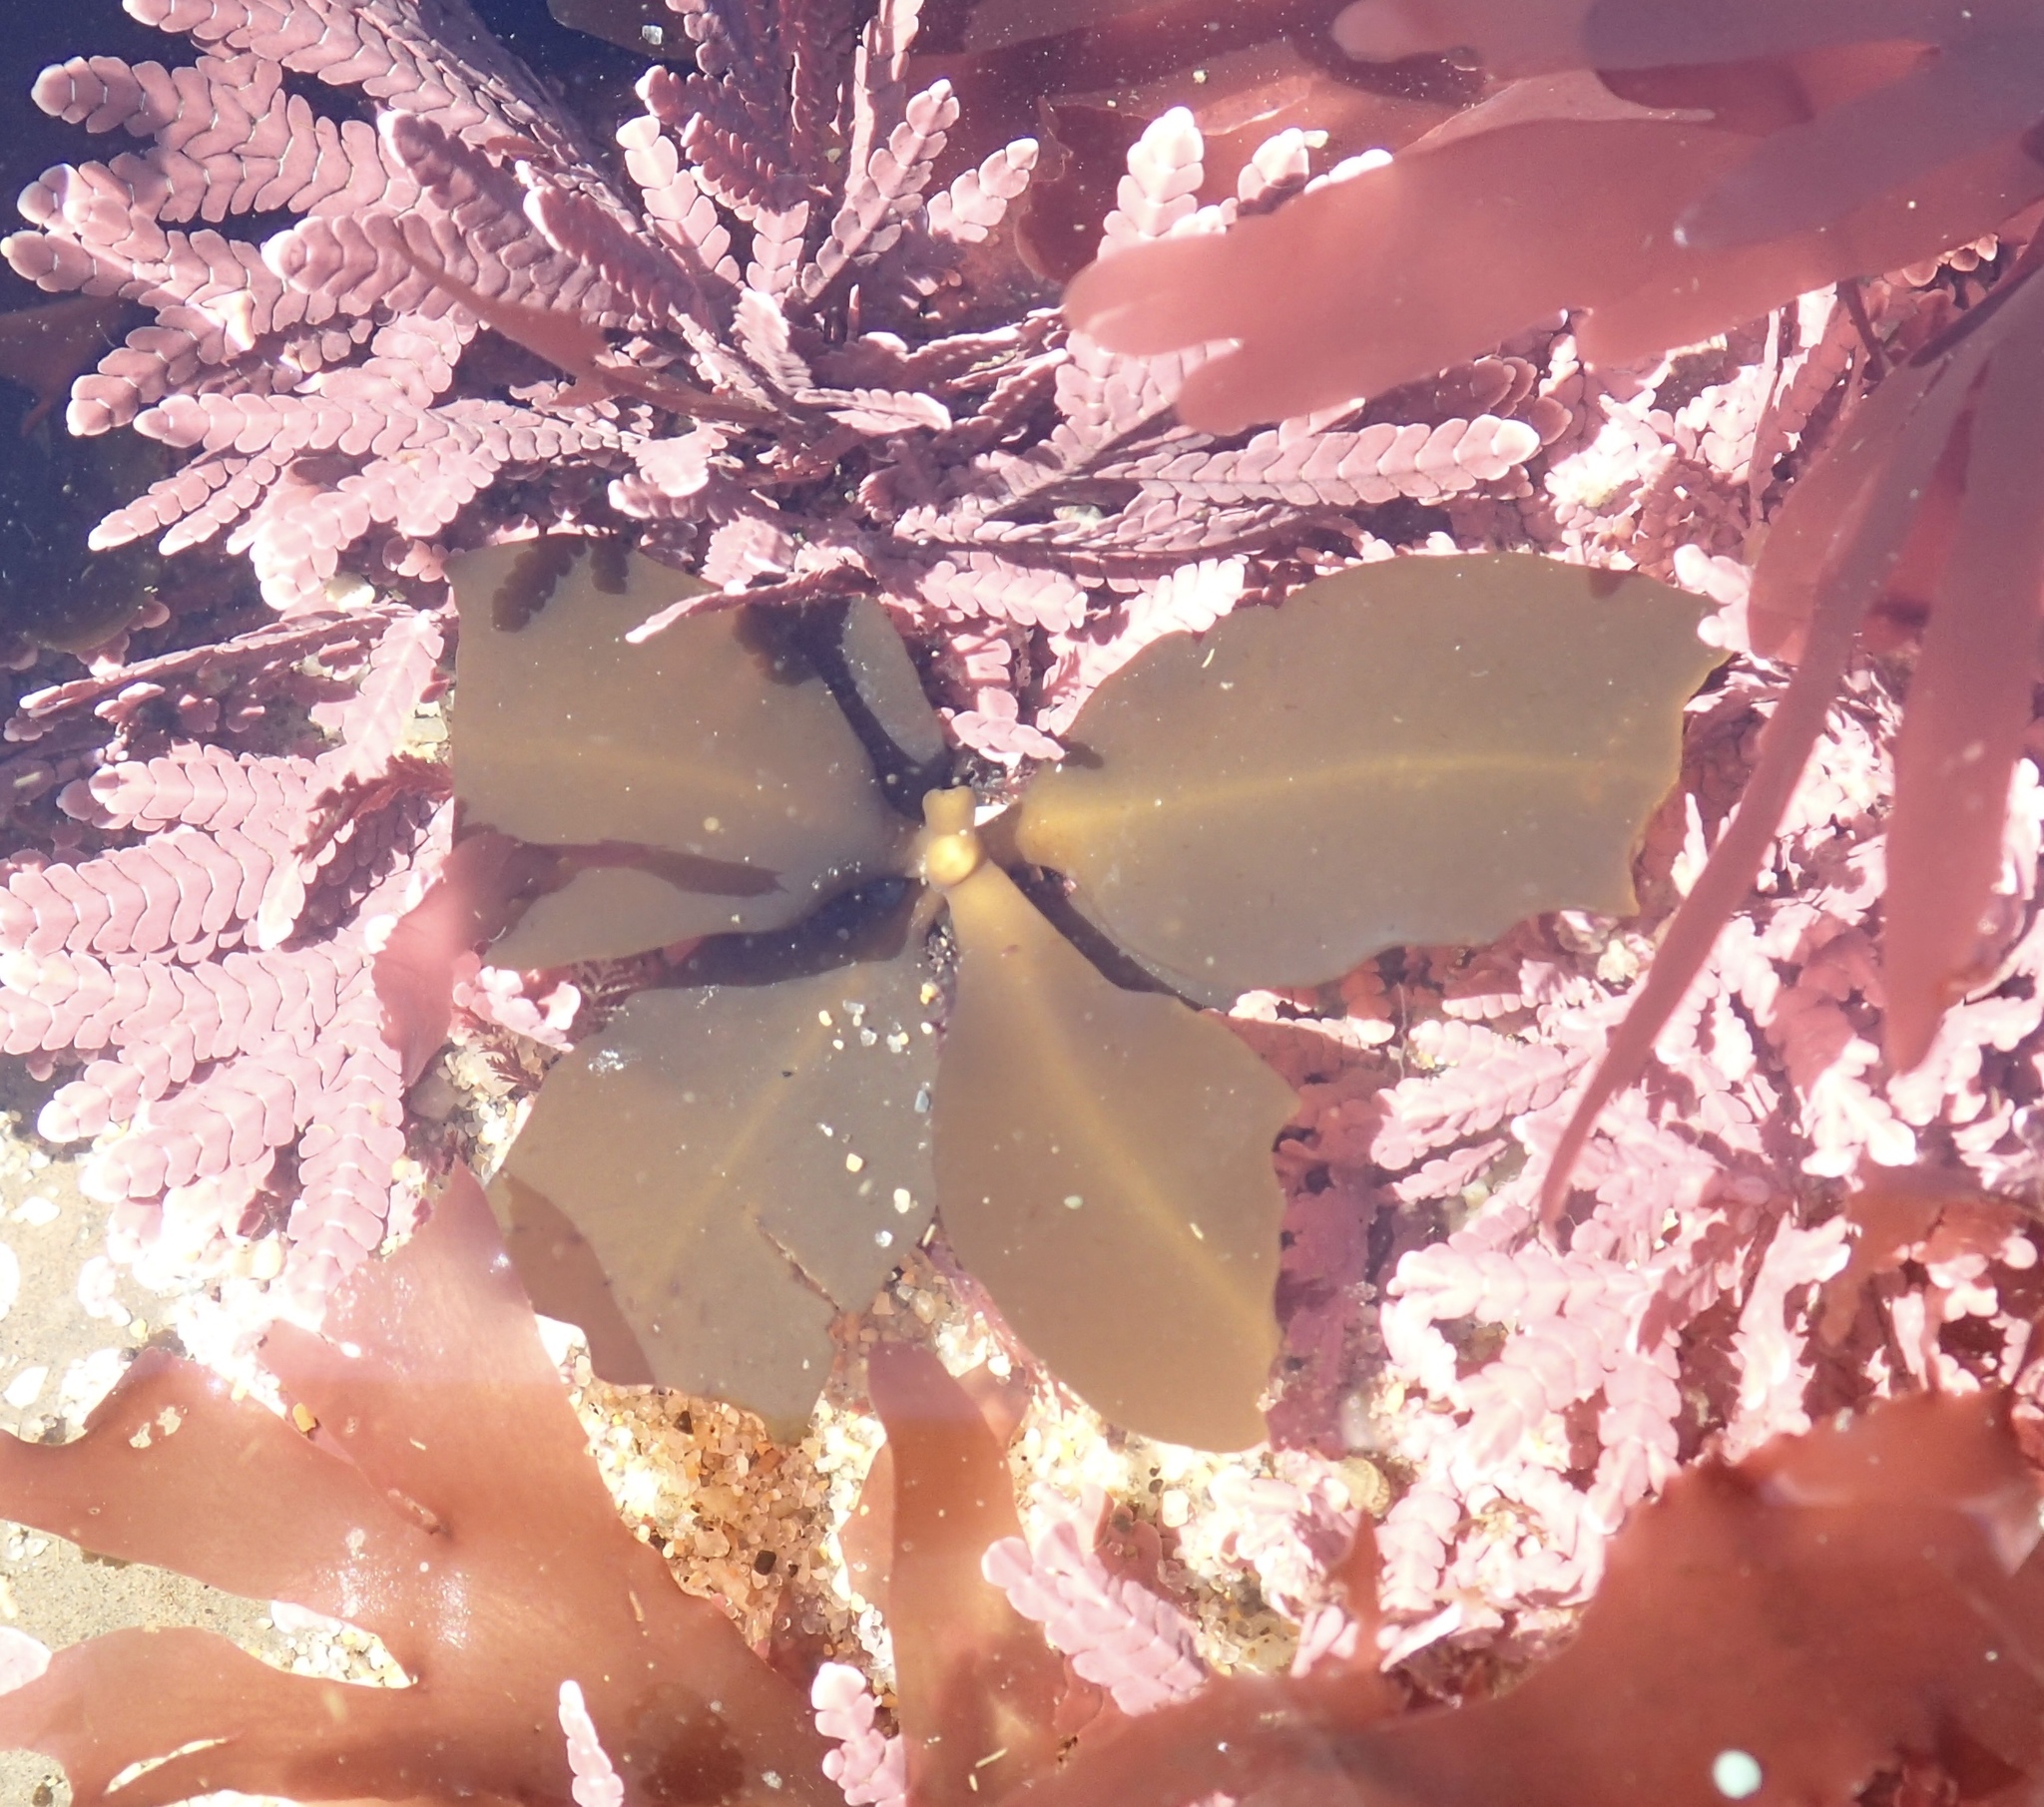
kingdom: Chromista
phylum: Ochrophyta
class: Phaeophyceae
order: Fucales
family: Sargassaceae
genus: Stephanocystis
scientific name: Stephanocystis
